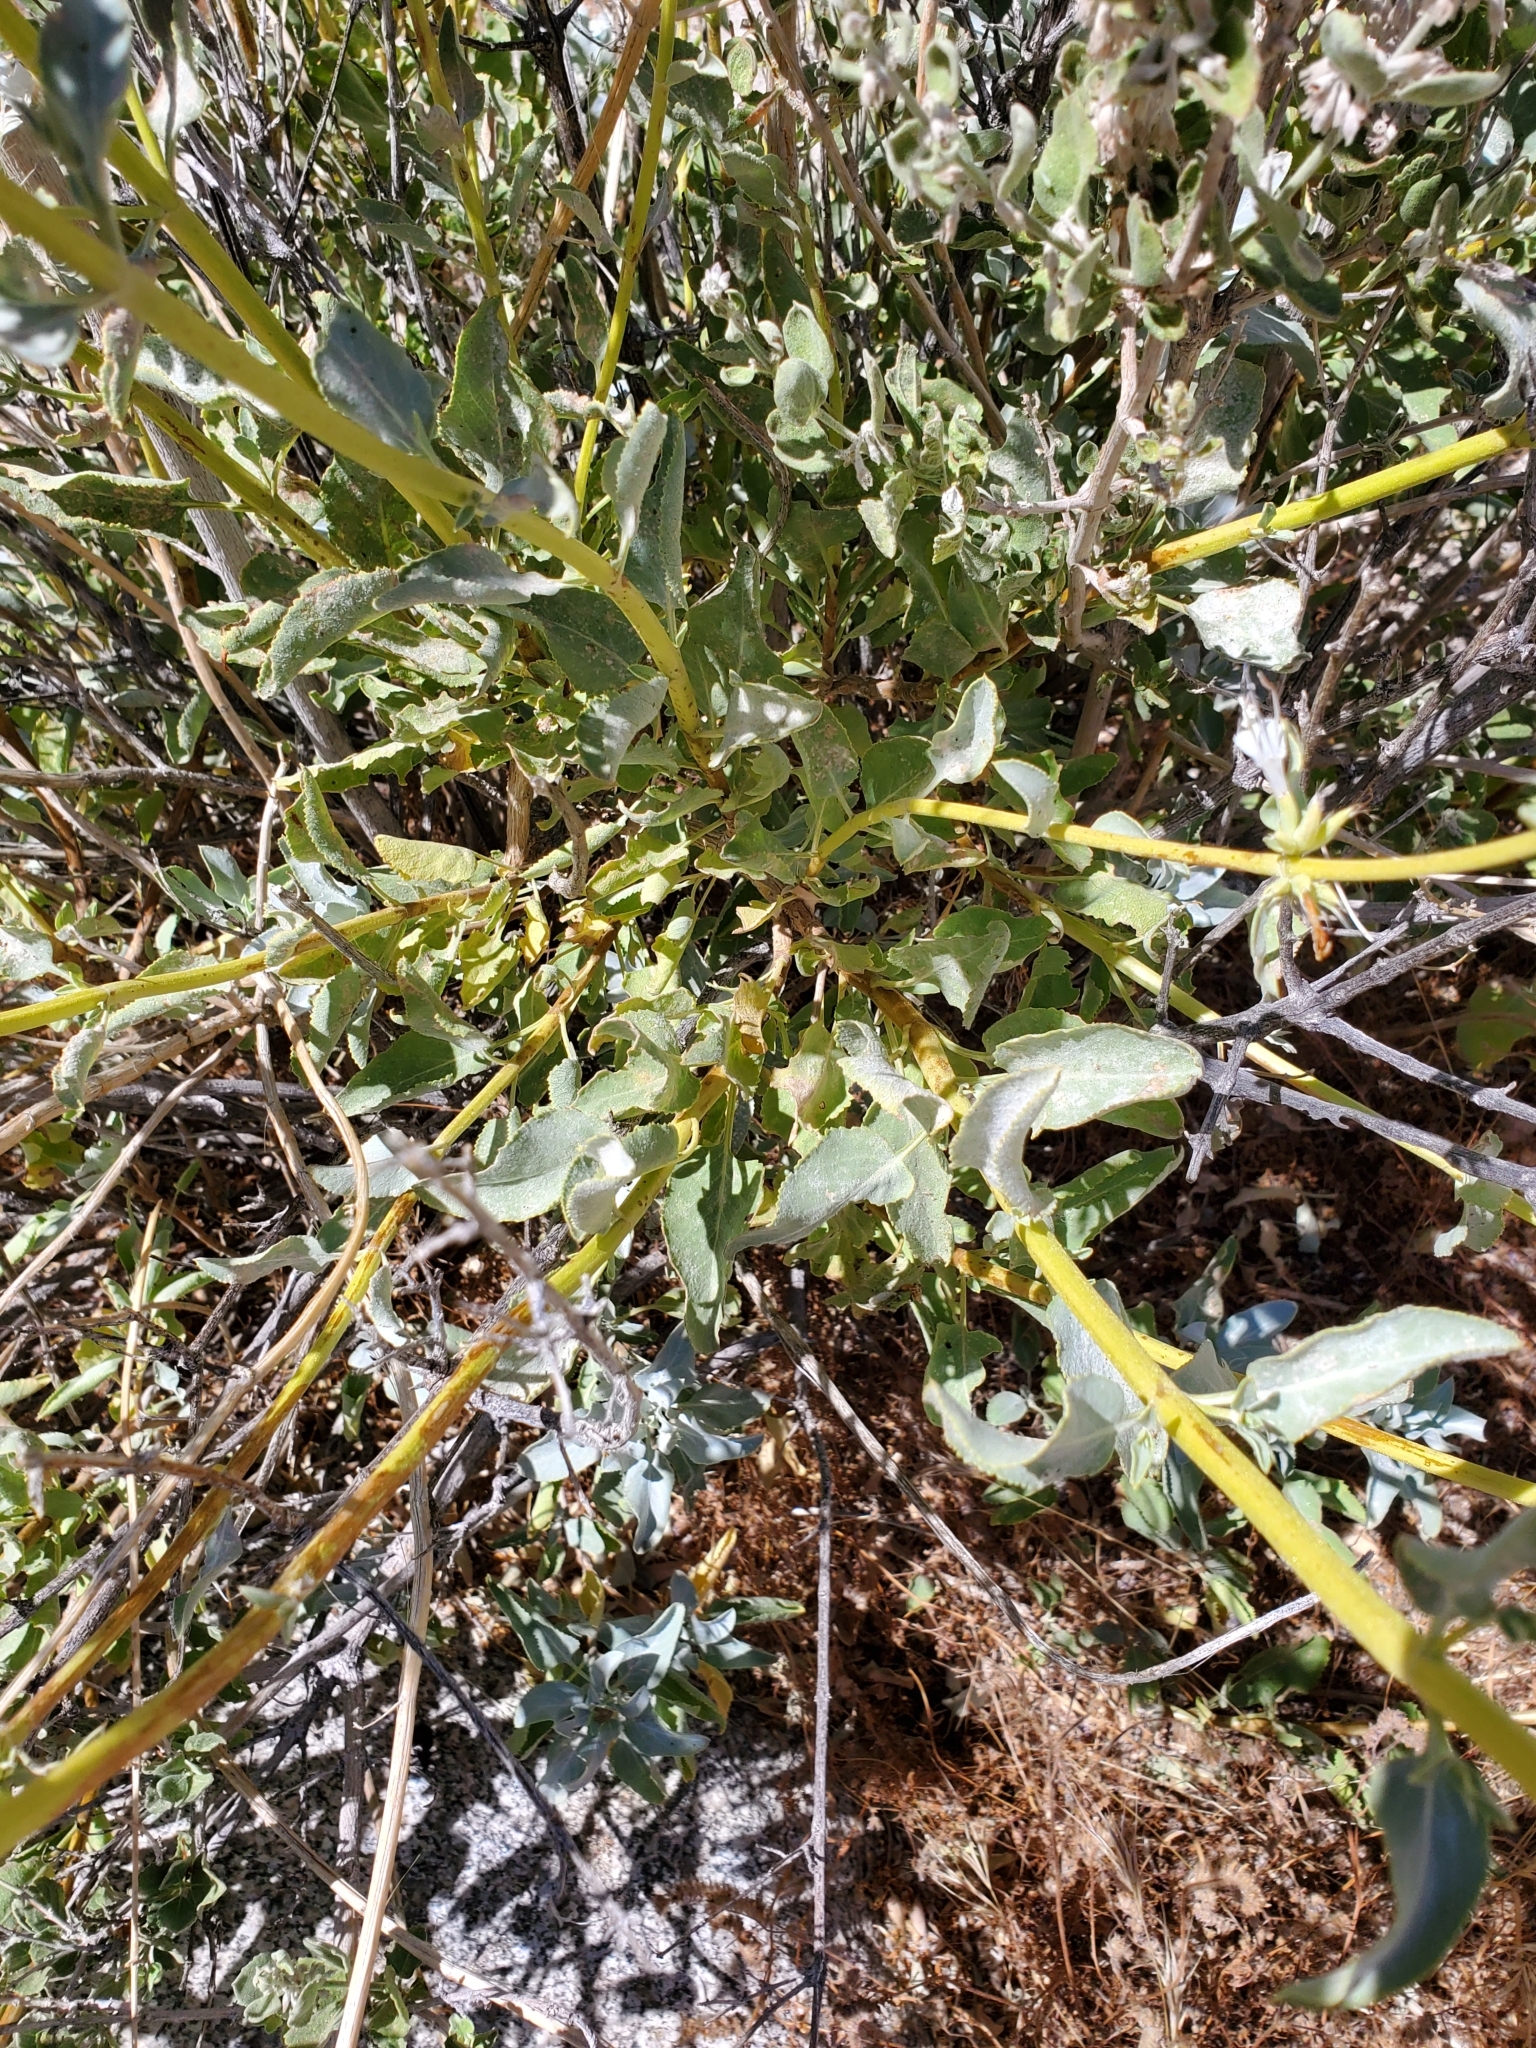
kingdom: Plantae
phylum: Tracheophyta
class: Magnoliopsida
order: Lamiales
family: Lamiaceae
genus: Salvia
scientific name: Salvia vaseyi
